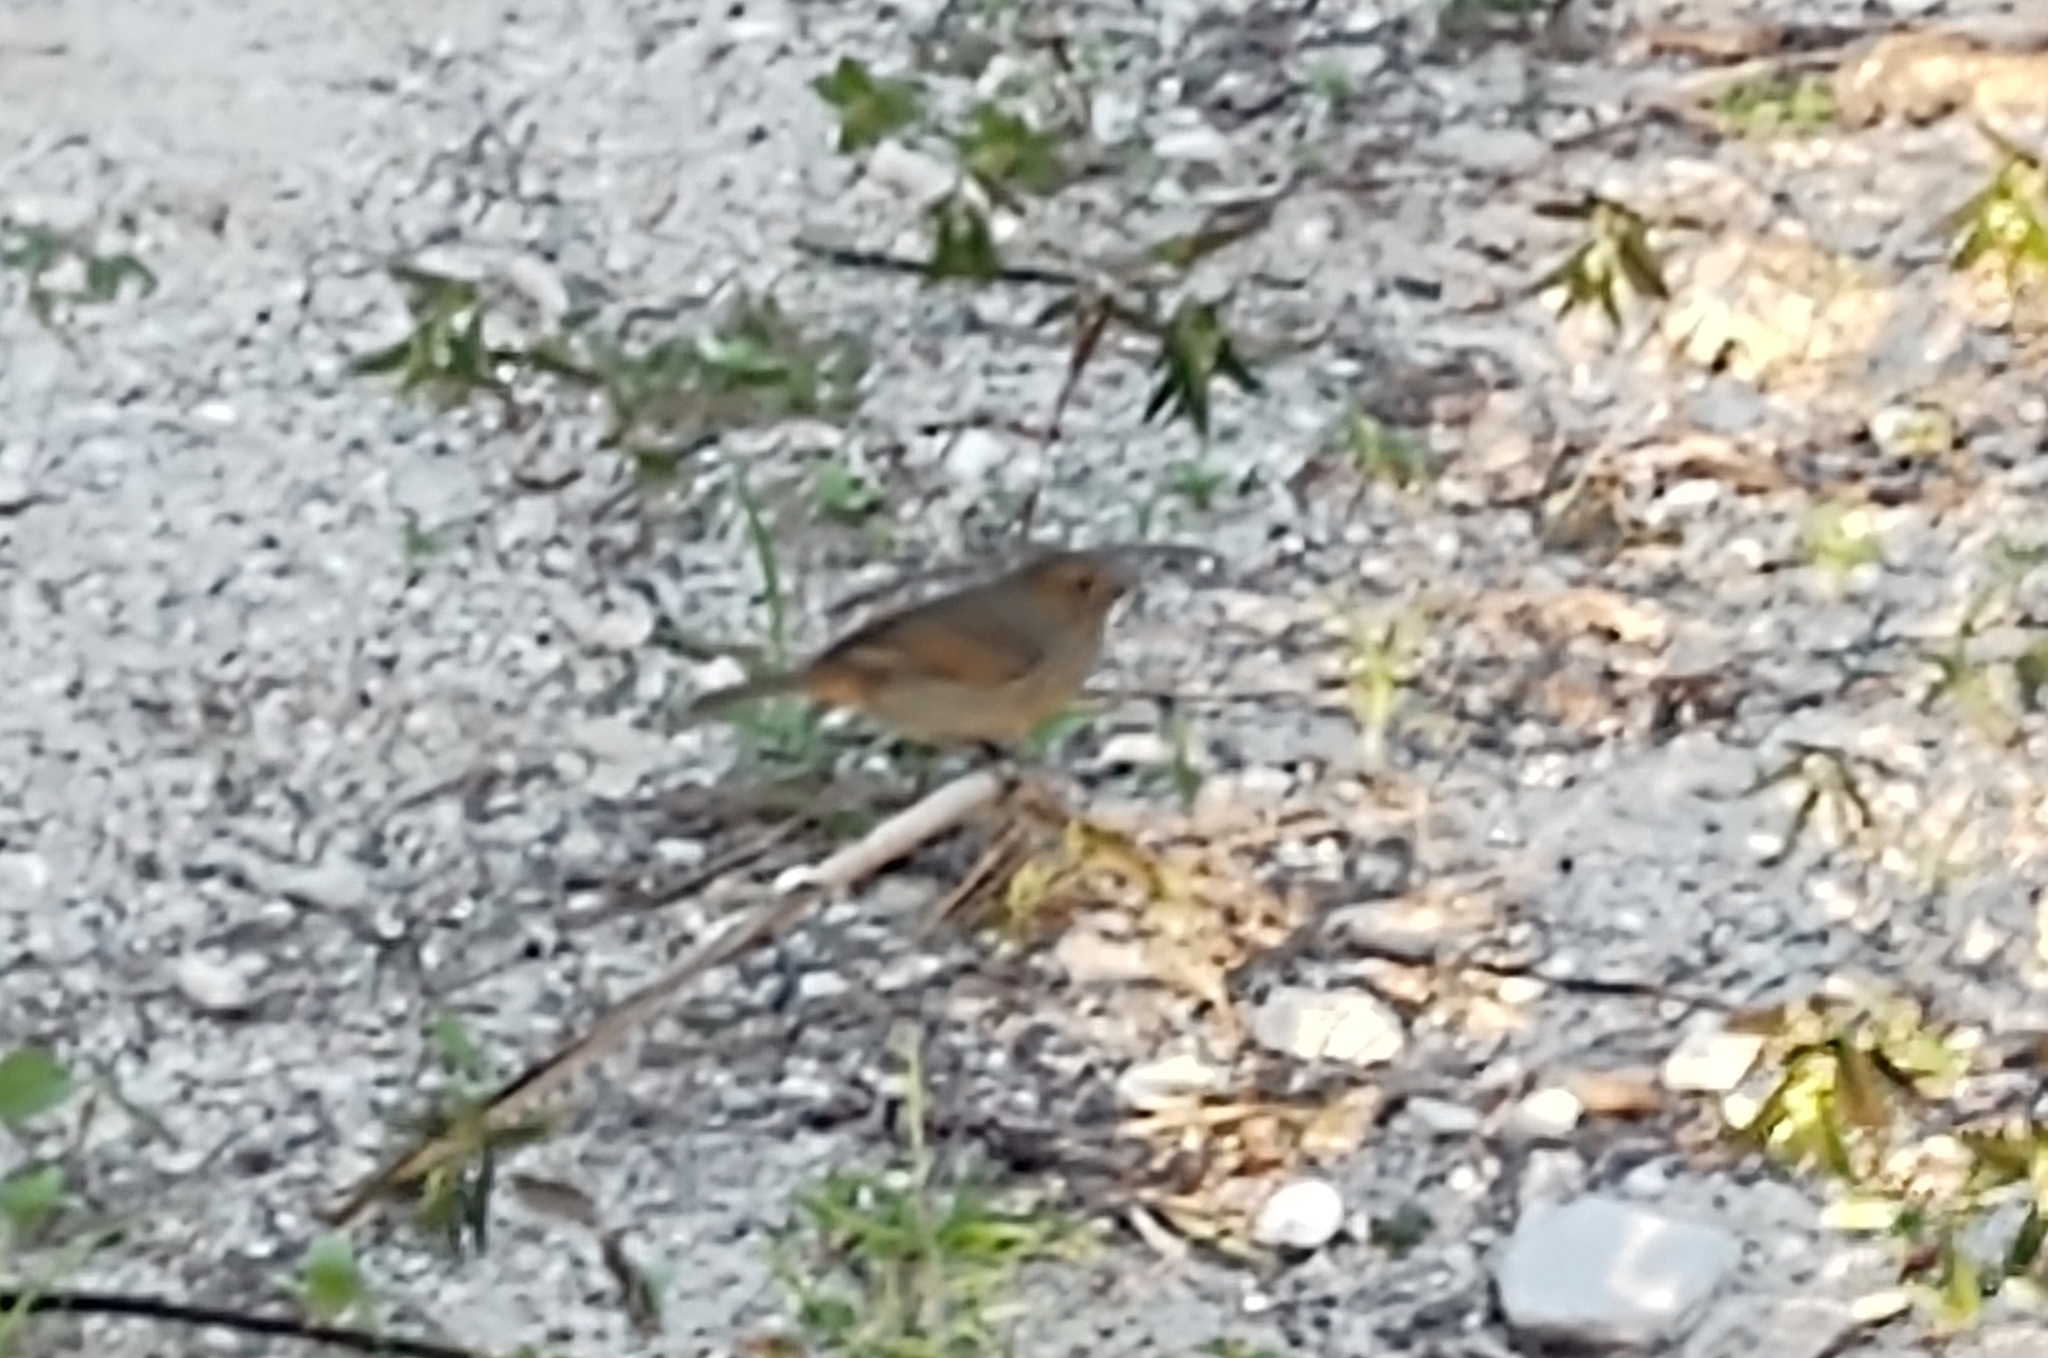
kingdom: Animalia
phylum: Chordata
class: Aves
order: Passeriformes
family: Thraupidae
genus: Loxigilla
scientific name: Loxigilla noctis
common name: Lesser antillean bullfinch
